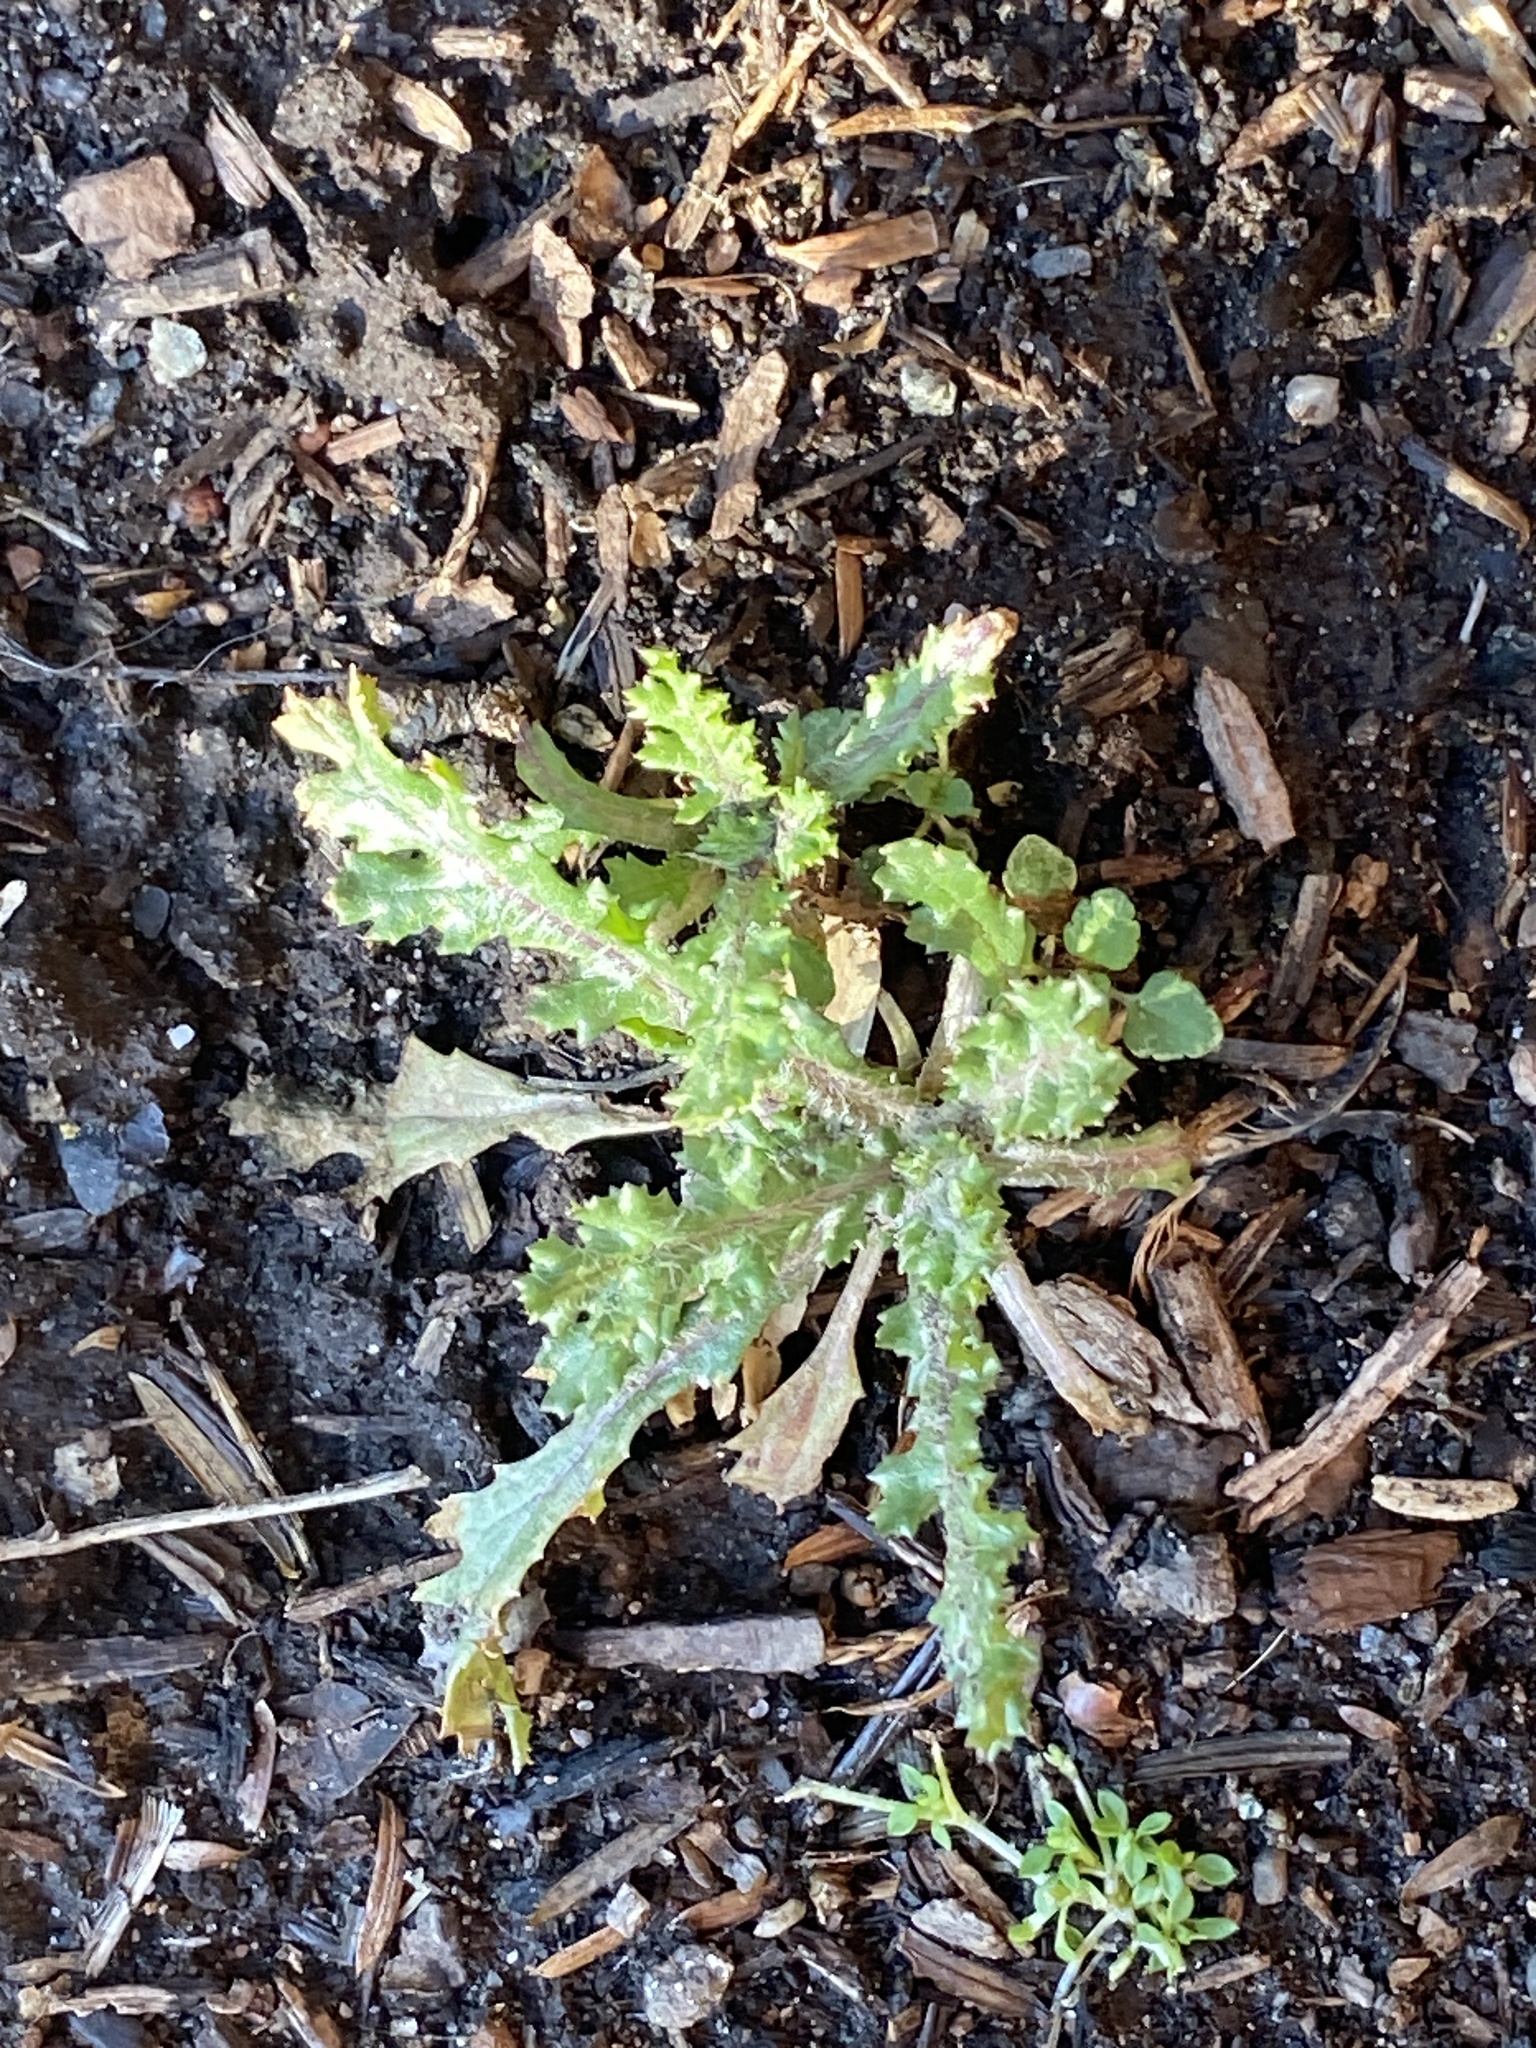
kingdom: Plantae
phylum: Tracheophyta
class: Magnoliopsida
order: Asterales
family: Asteraceae
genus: Senecio
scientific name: Senecio vulgaris
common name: Old-man-in-the-spring
